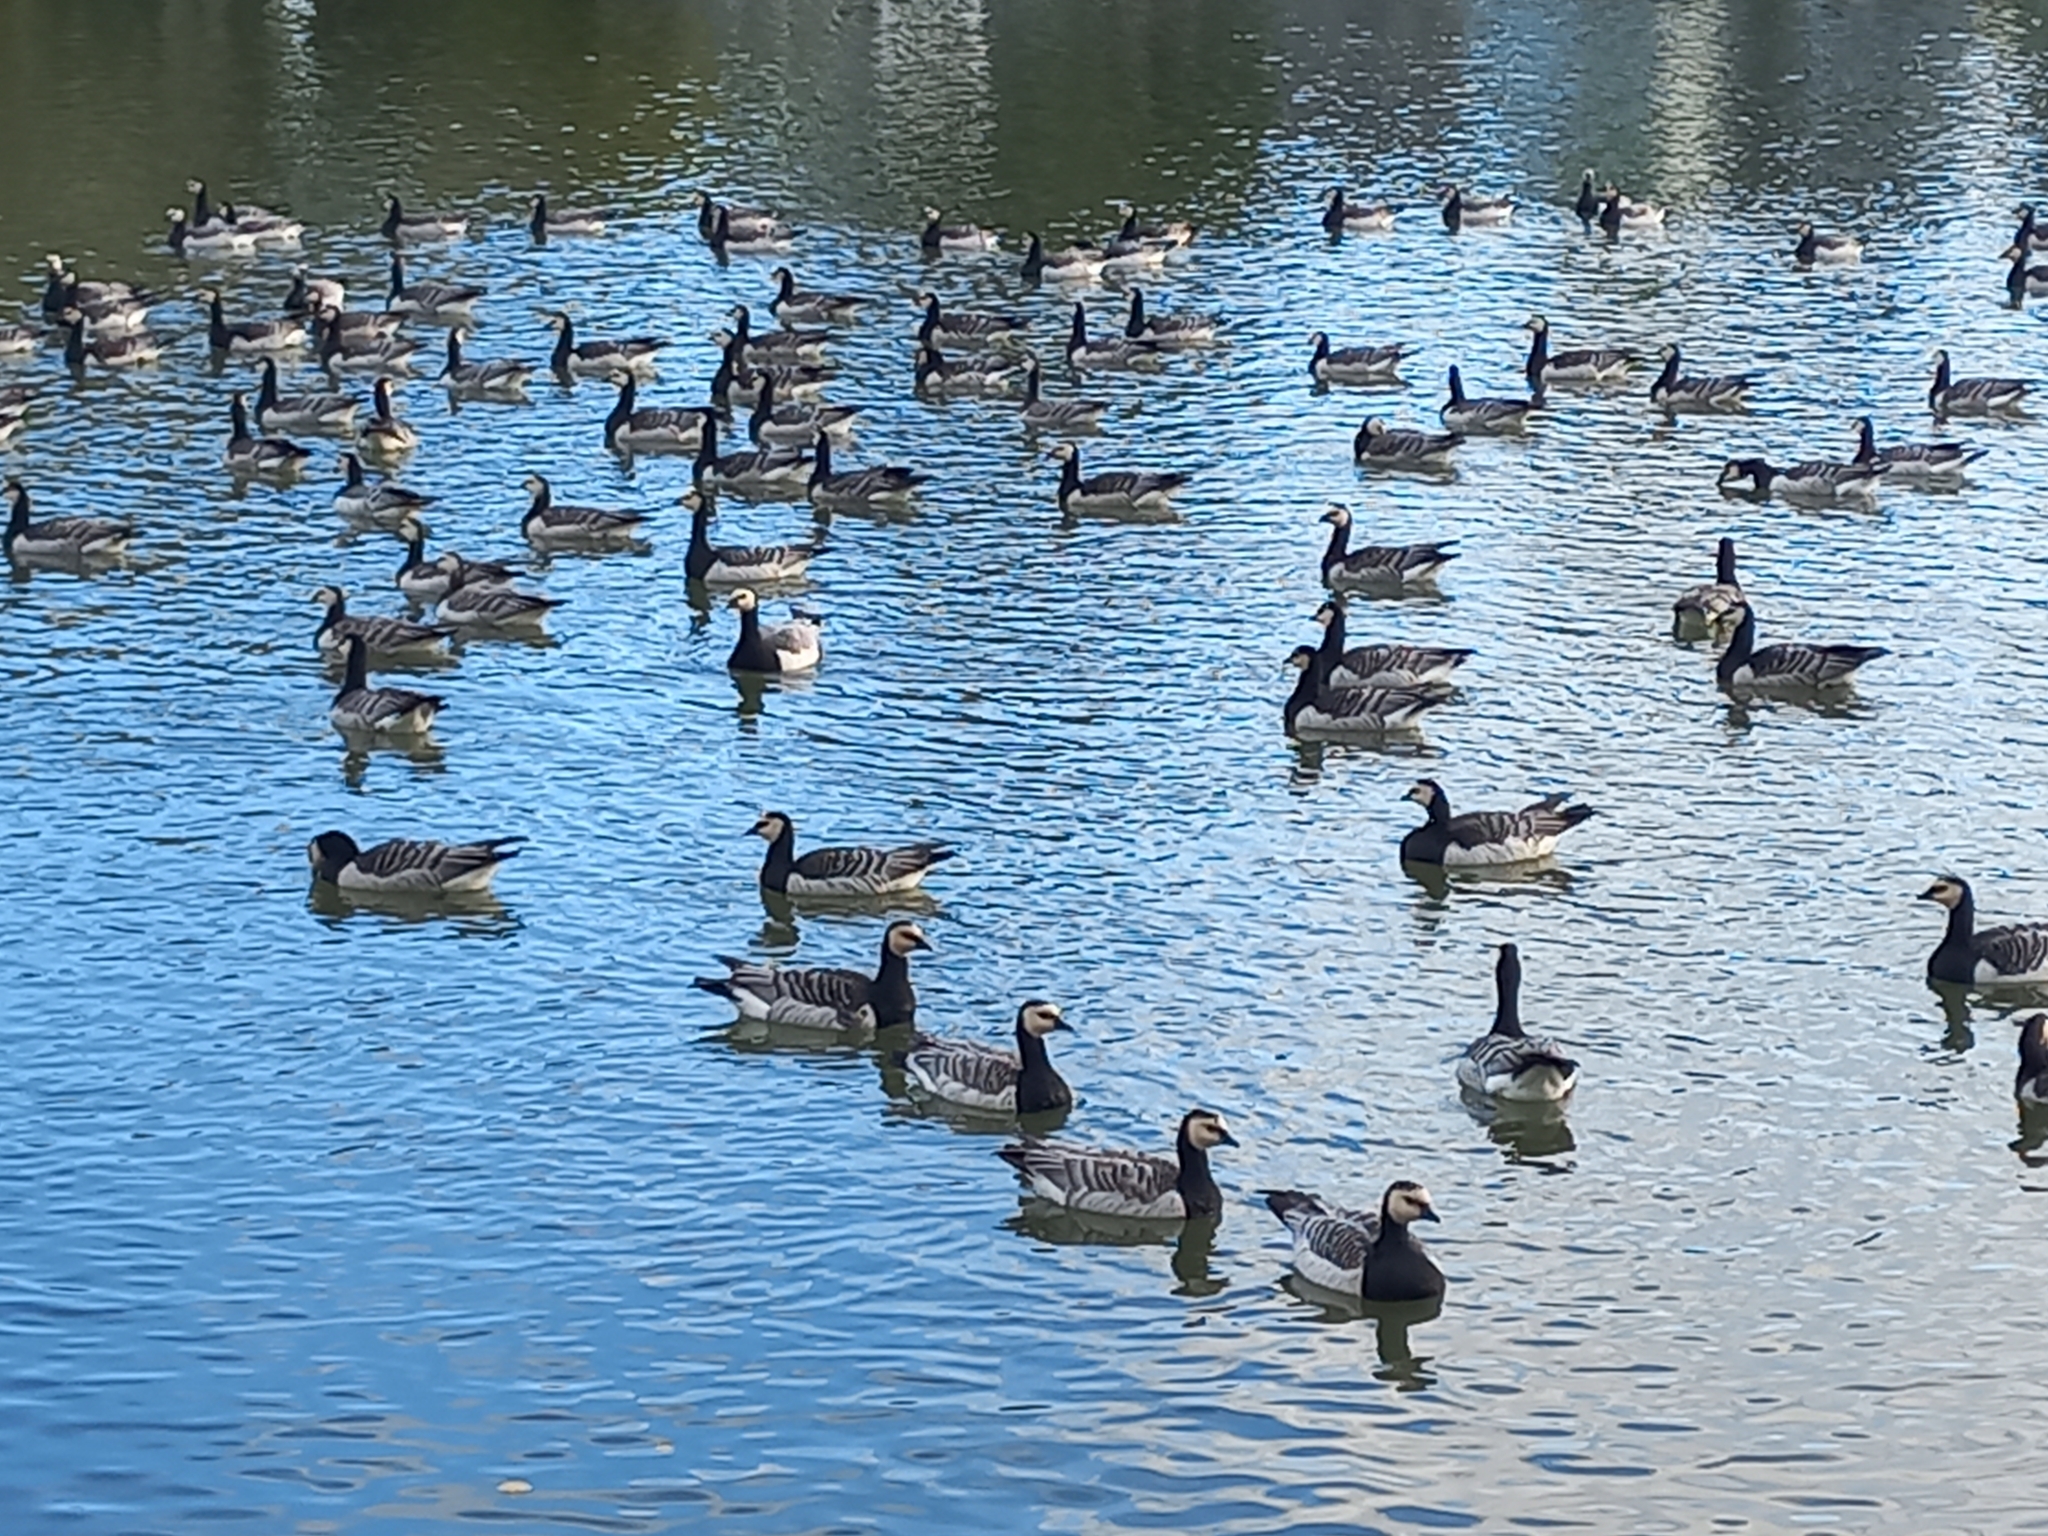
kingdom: Animalia
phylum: Chordata
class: Aves
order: Anseriformes
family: Anatidae
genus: Branta
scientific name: Branta leucopsis
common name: Barnacle goose
